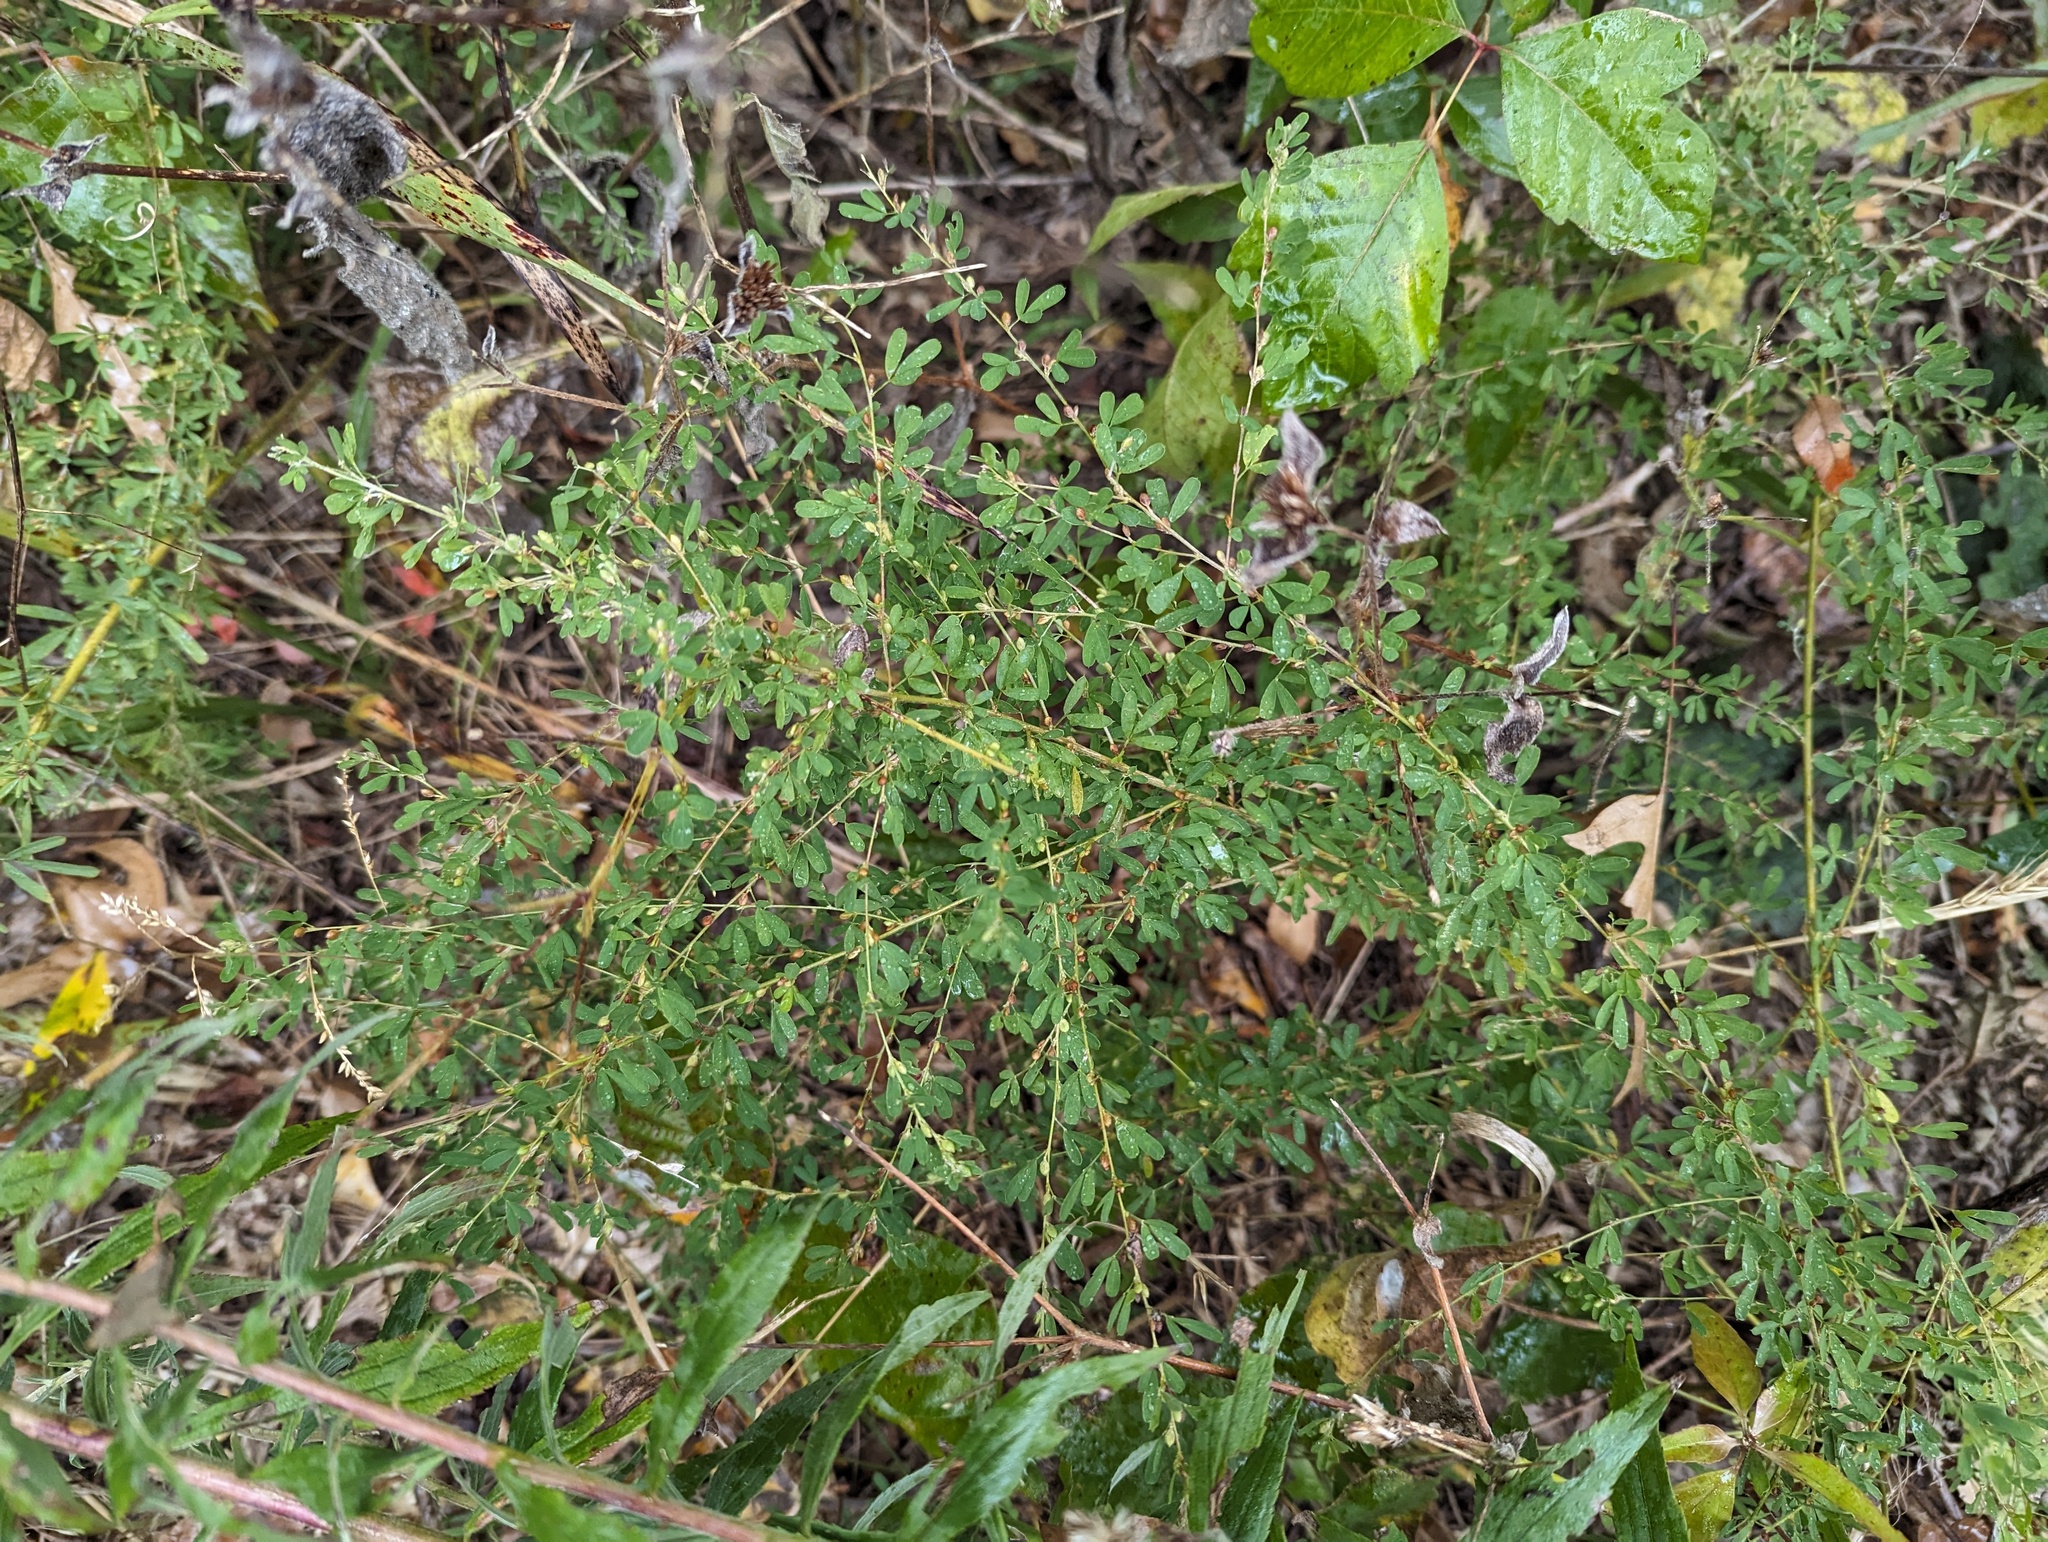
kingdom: Plantae
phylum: Tracheophyta
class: Magnoliopsida
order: Fabales
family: Fabaceae
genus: Lespedeza
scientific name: Lespedeza cuneata
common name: Chinese bush-clover
